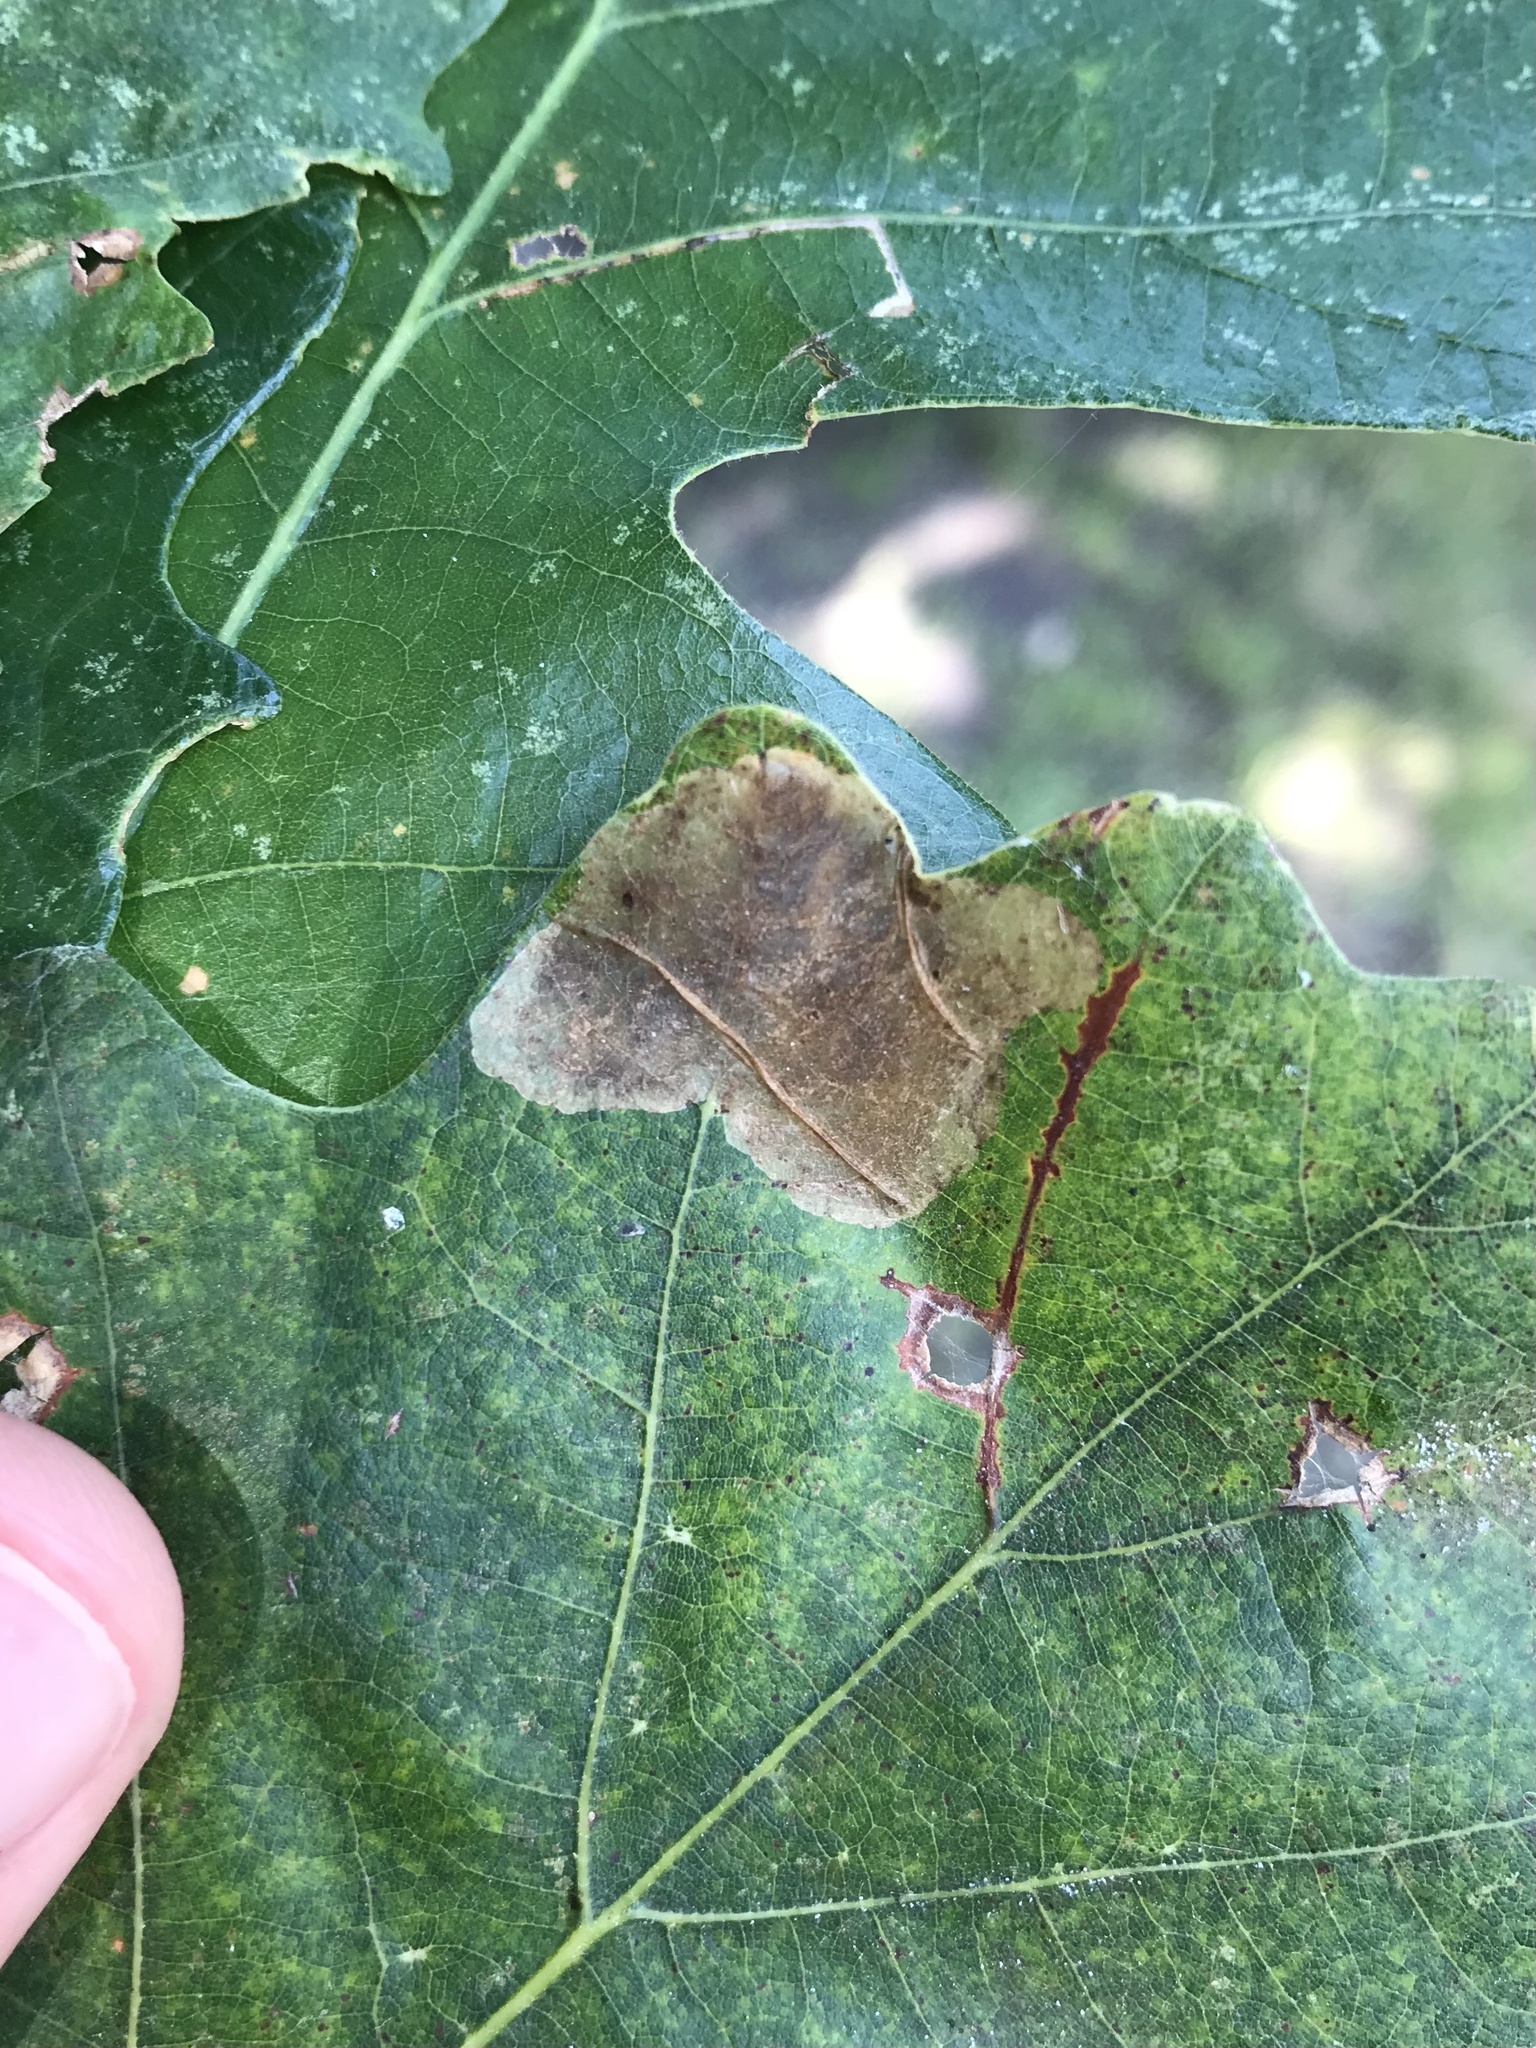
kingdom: Animalia
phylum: Arthropoda
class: Insecta
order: Lepidoptera
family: Gracillariidae
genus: Cameraria
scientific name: Cameraria macrocarpella
